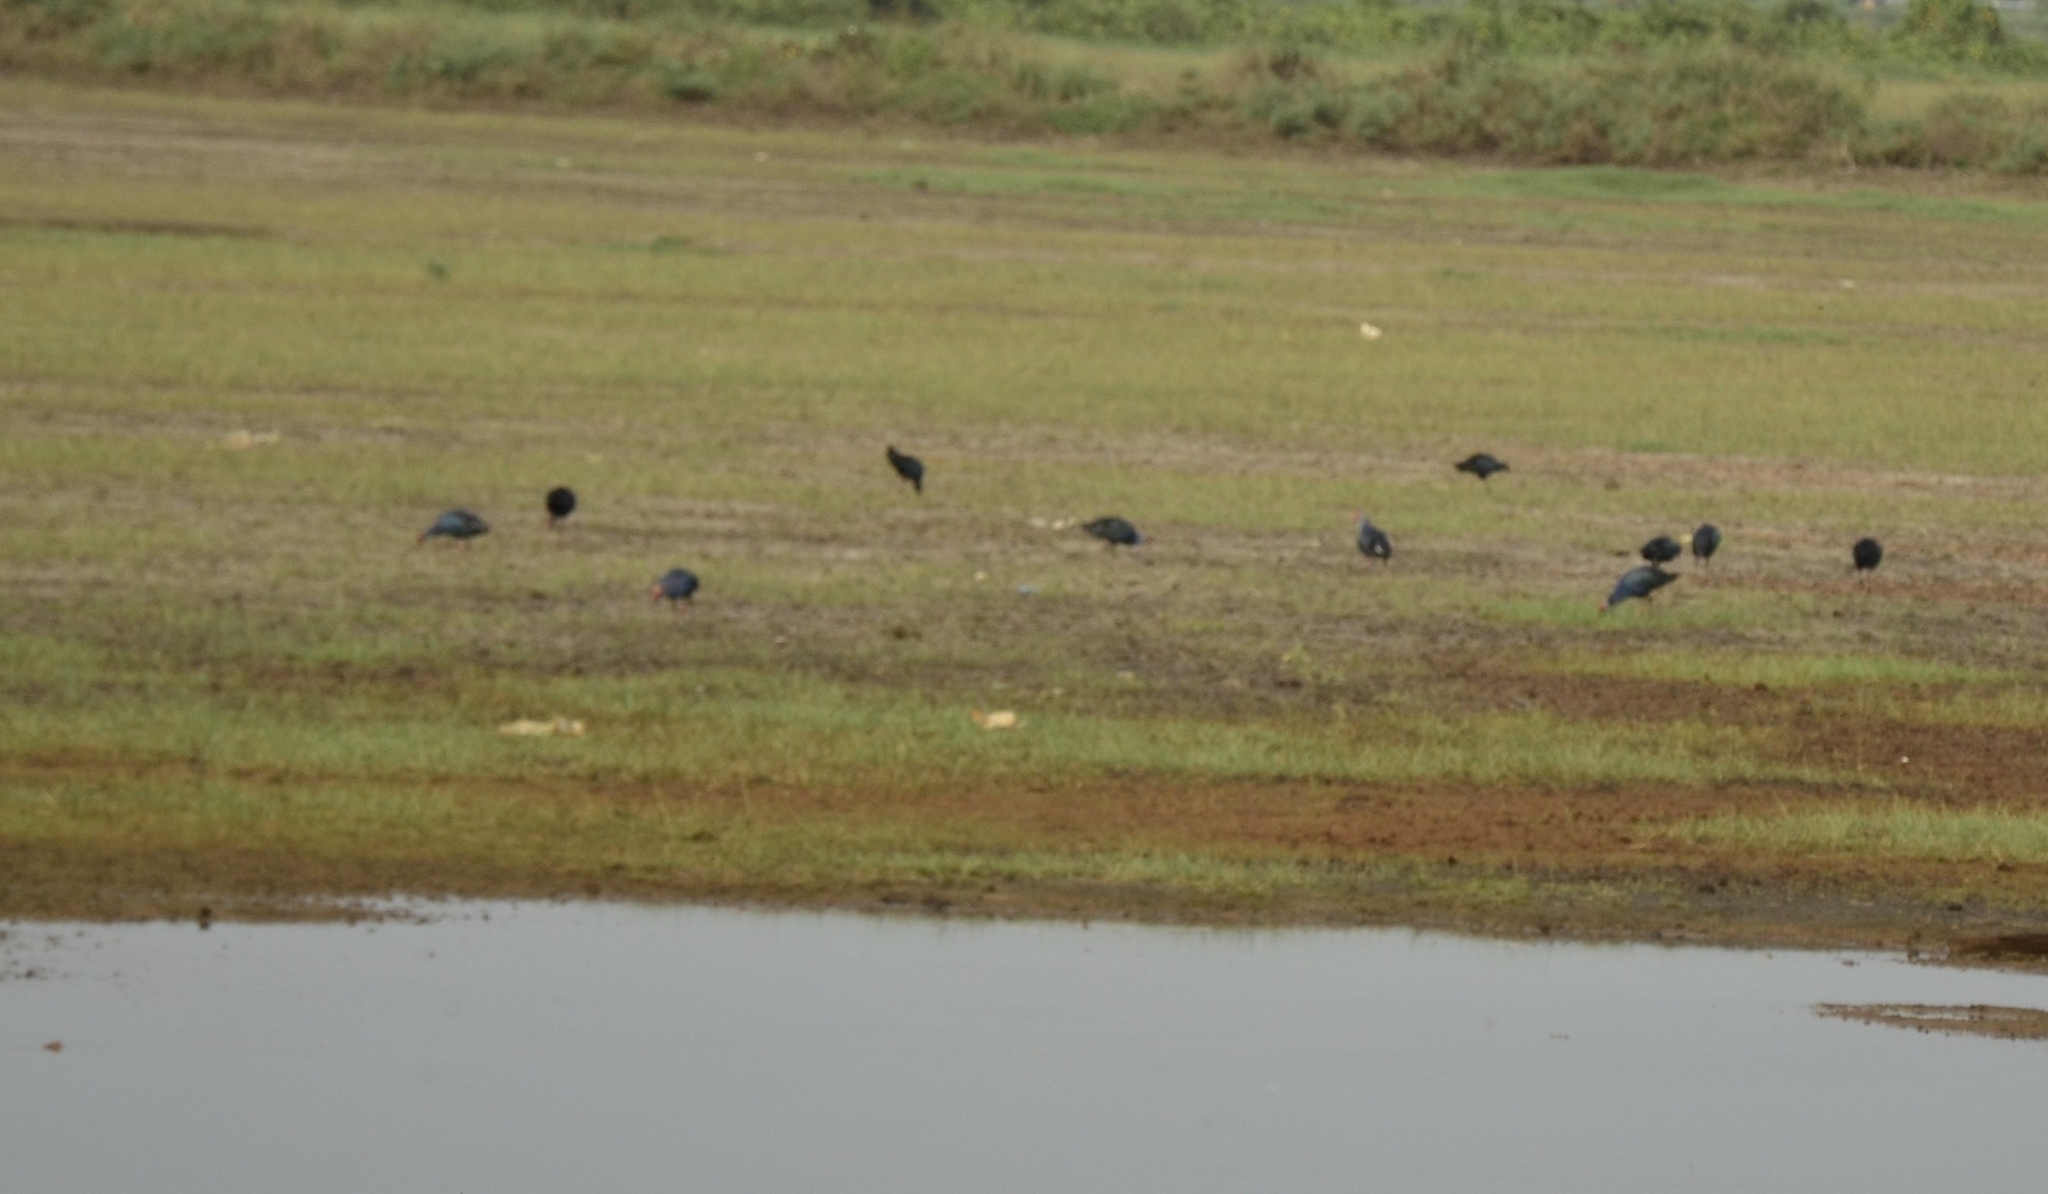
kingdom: Animalia
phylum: Chordata
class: Aves
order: Gruiformes
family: Rallidae
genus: Porphyrio
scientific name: Porphyrio porphyrio
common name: Purple swamphen
